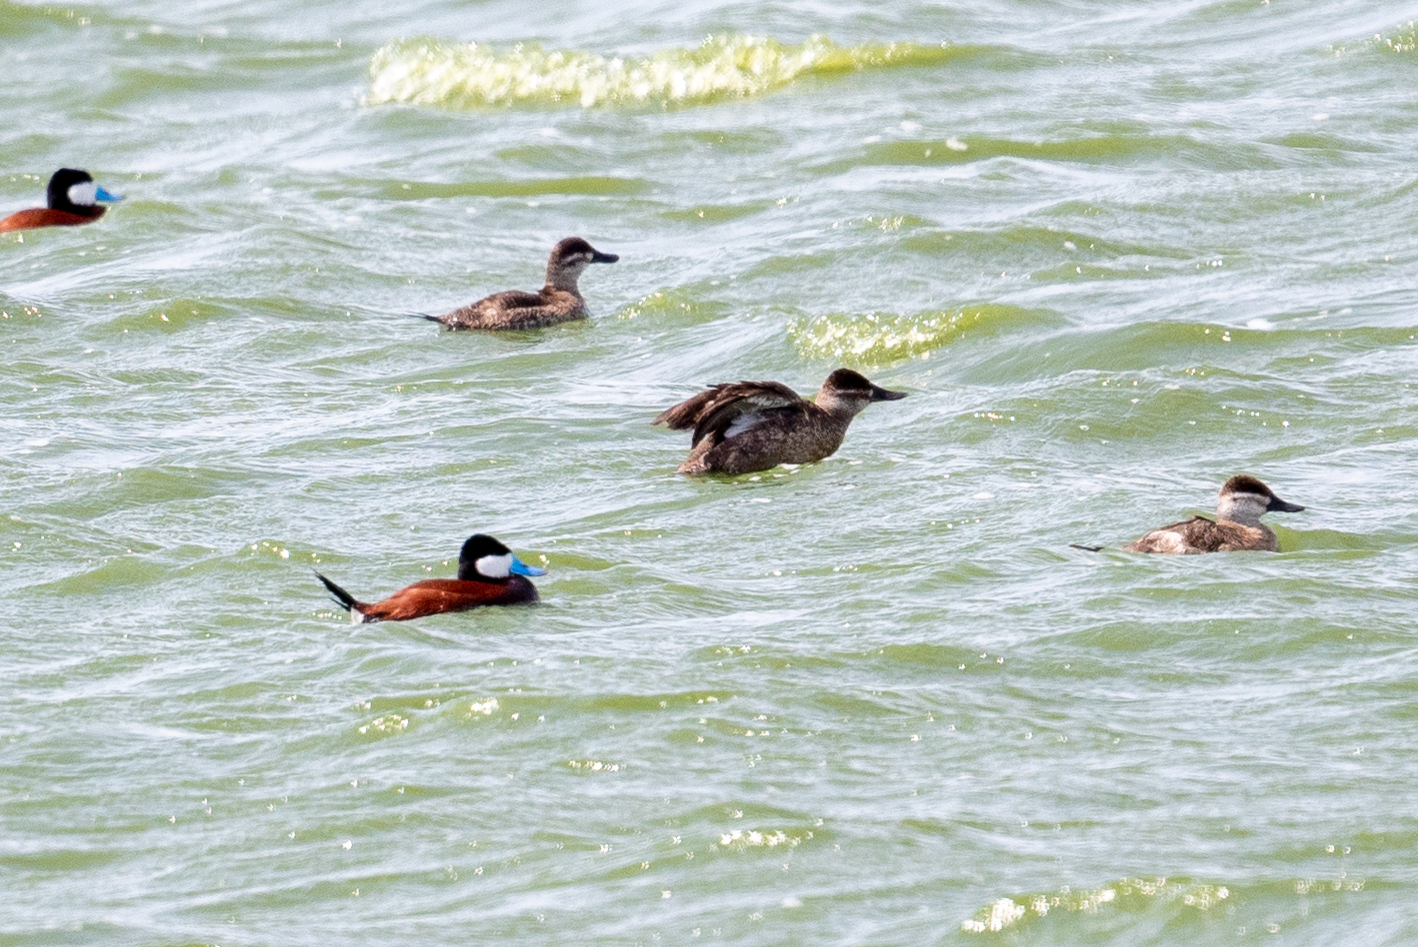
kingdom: Animalia
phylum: Chordata
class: Aves
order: Anseriformes
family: Anatidae
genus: Oxyura
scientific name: Oxyura jamaicensis
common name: Ruddy duck
